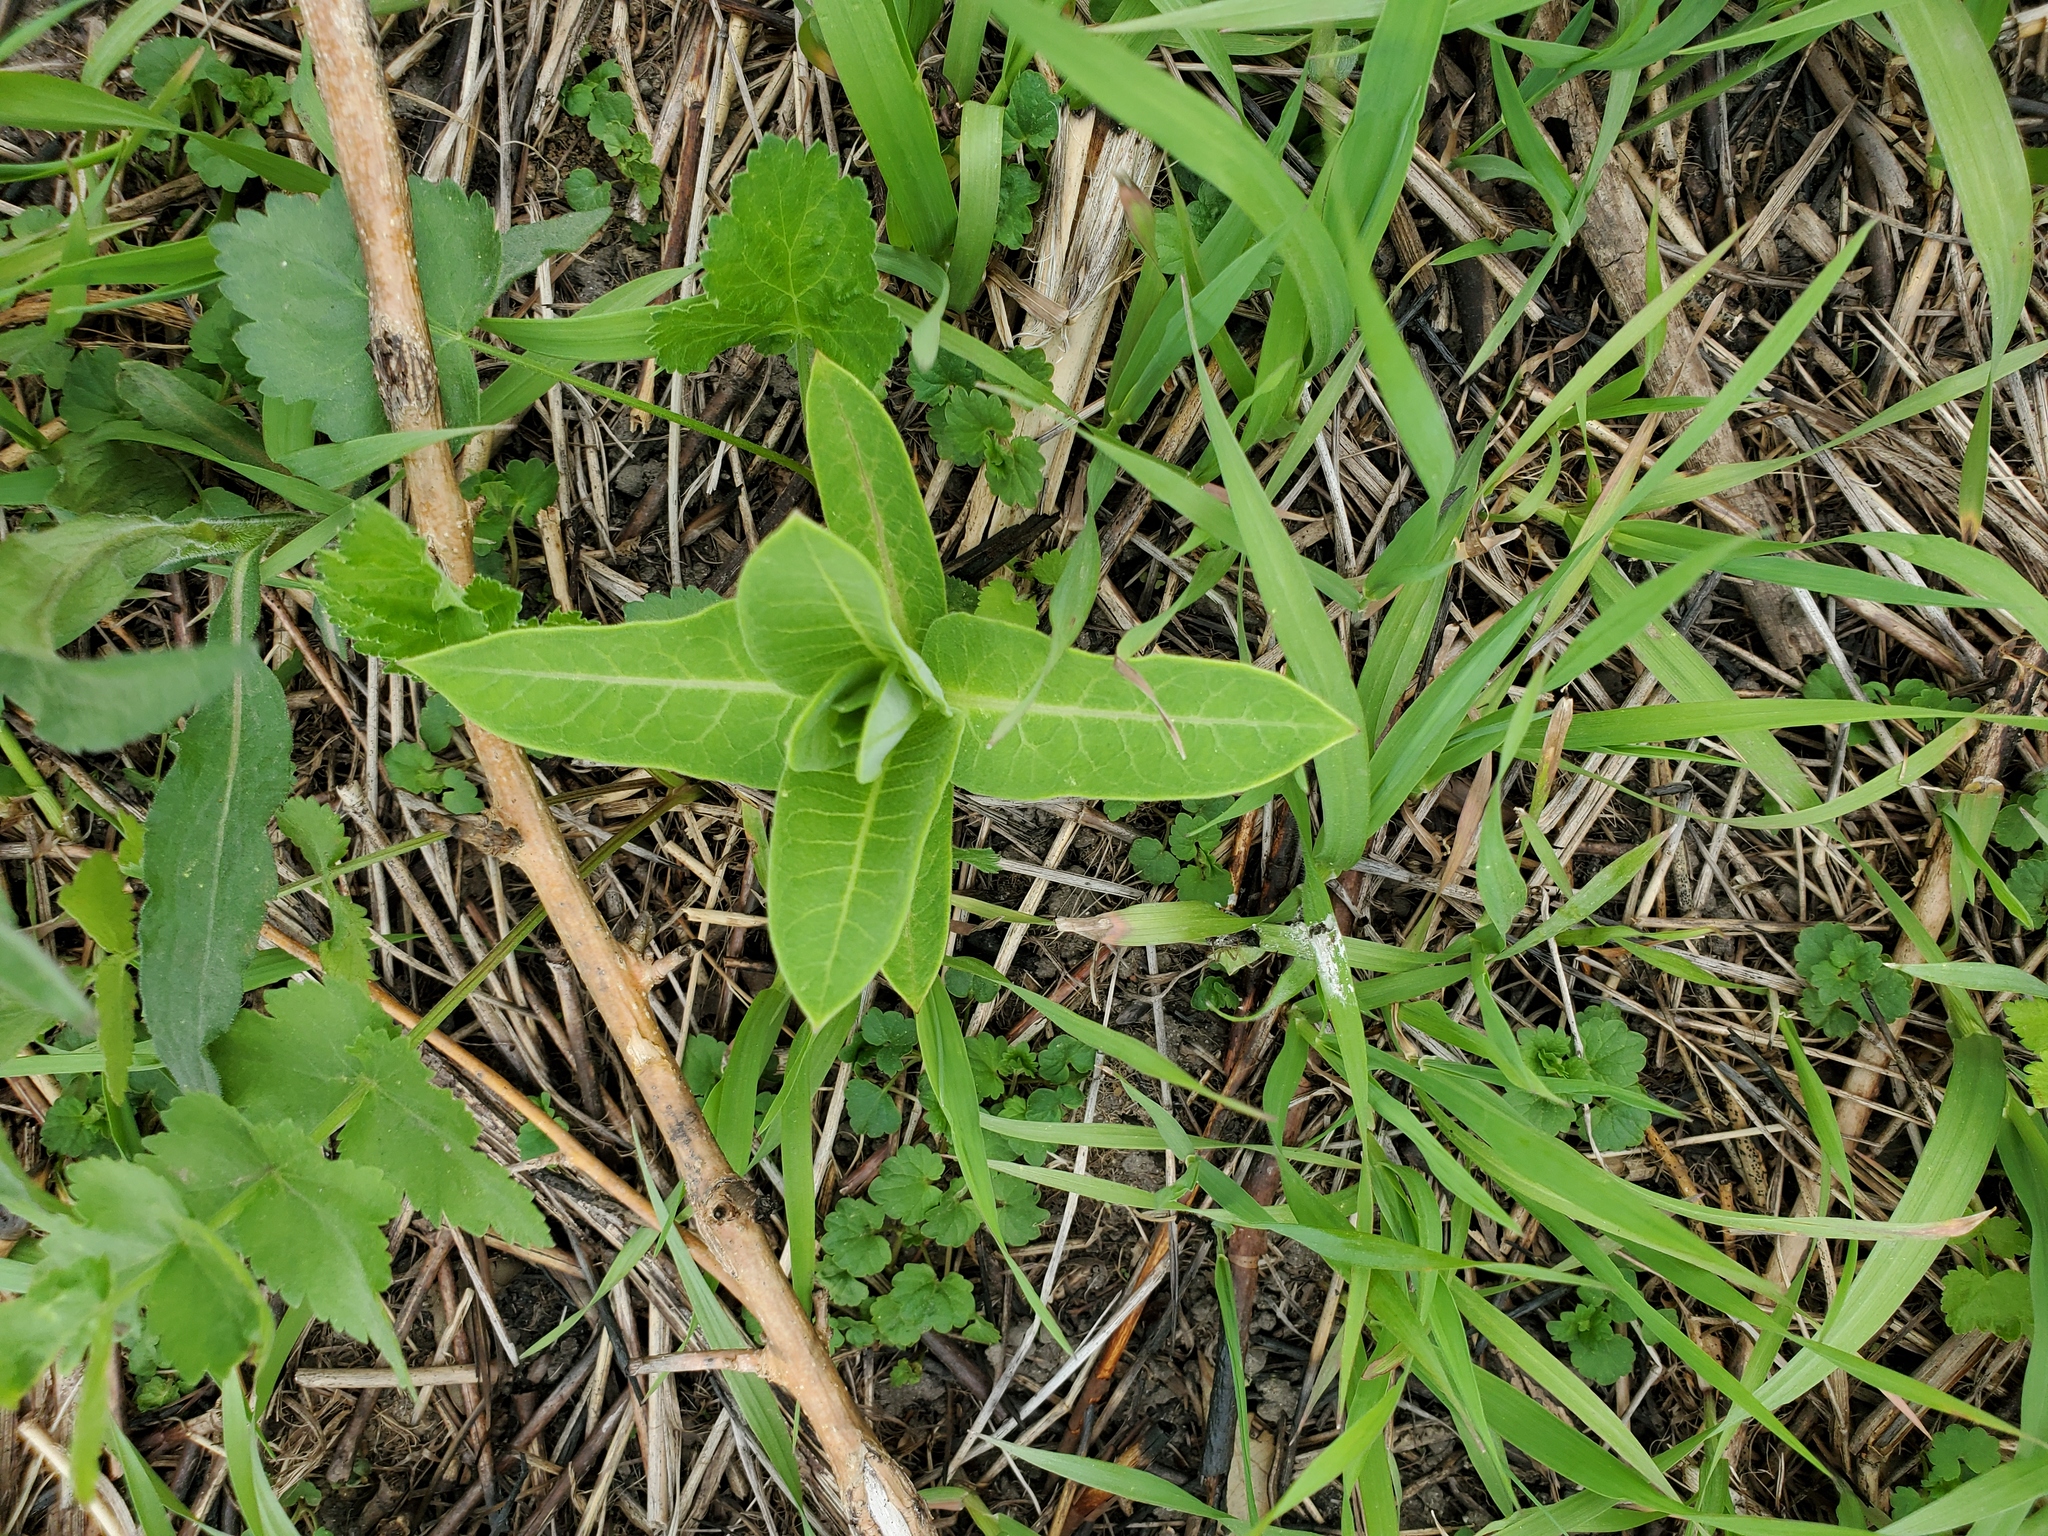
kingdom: Plantae
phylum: Tracheophyta
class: Magnoliopsida
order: Gentianales
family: Apocynaceae
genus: Asclepias
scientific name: Asclepias syriaca
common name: Common milkweed
